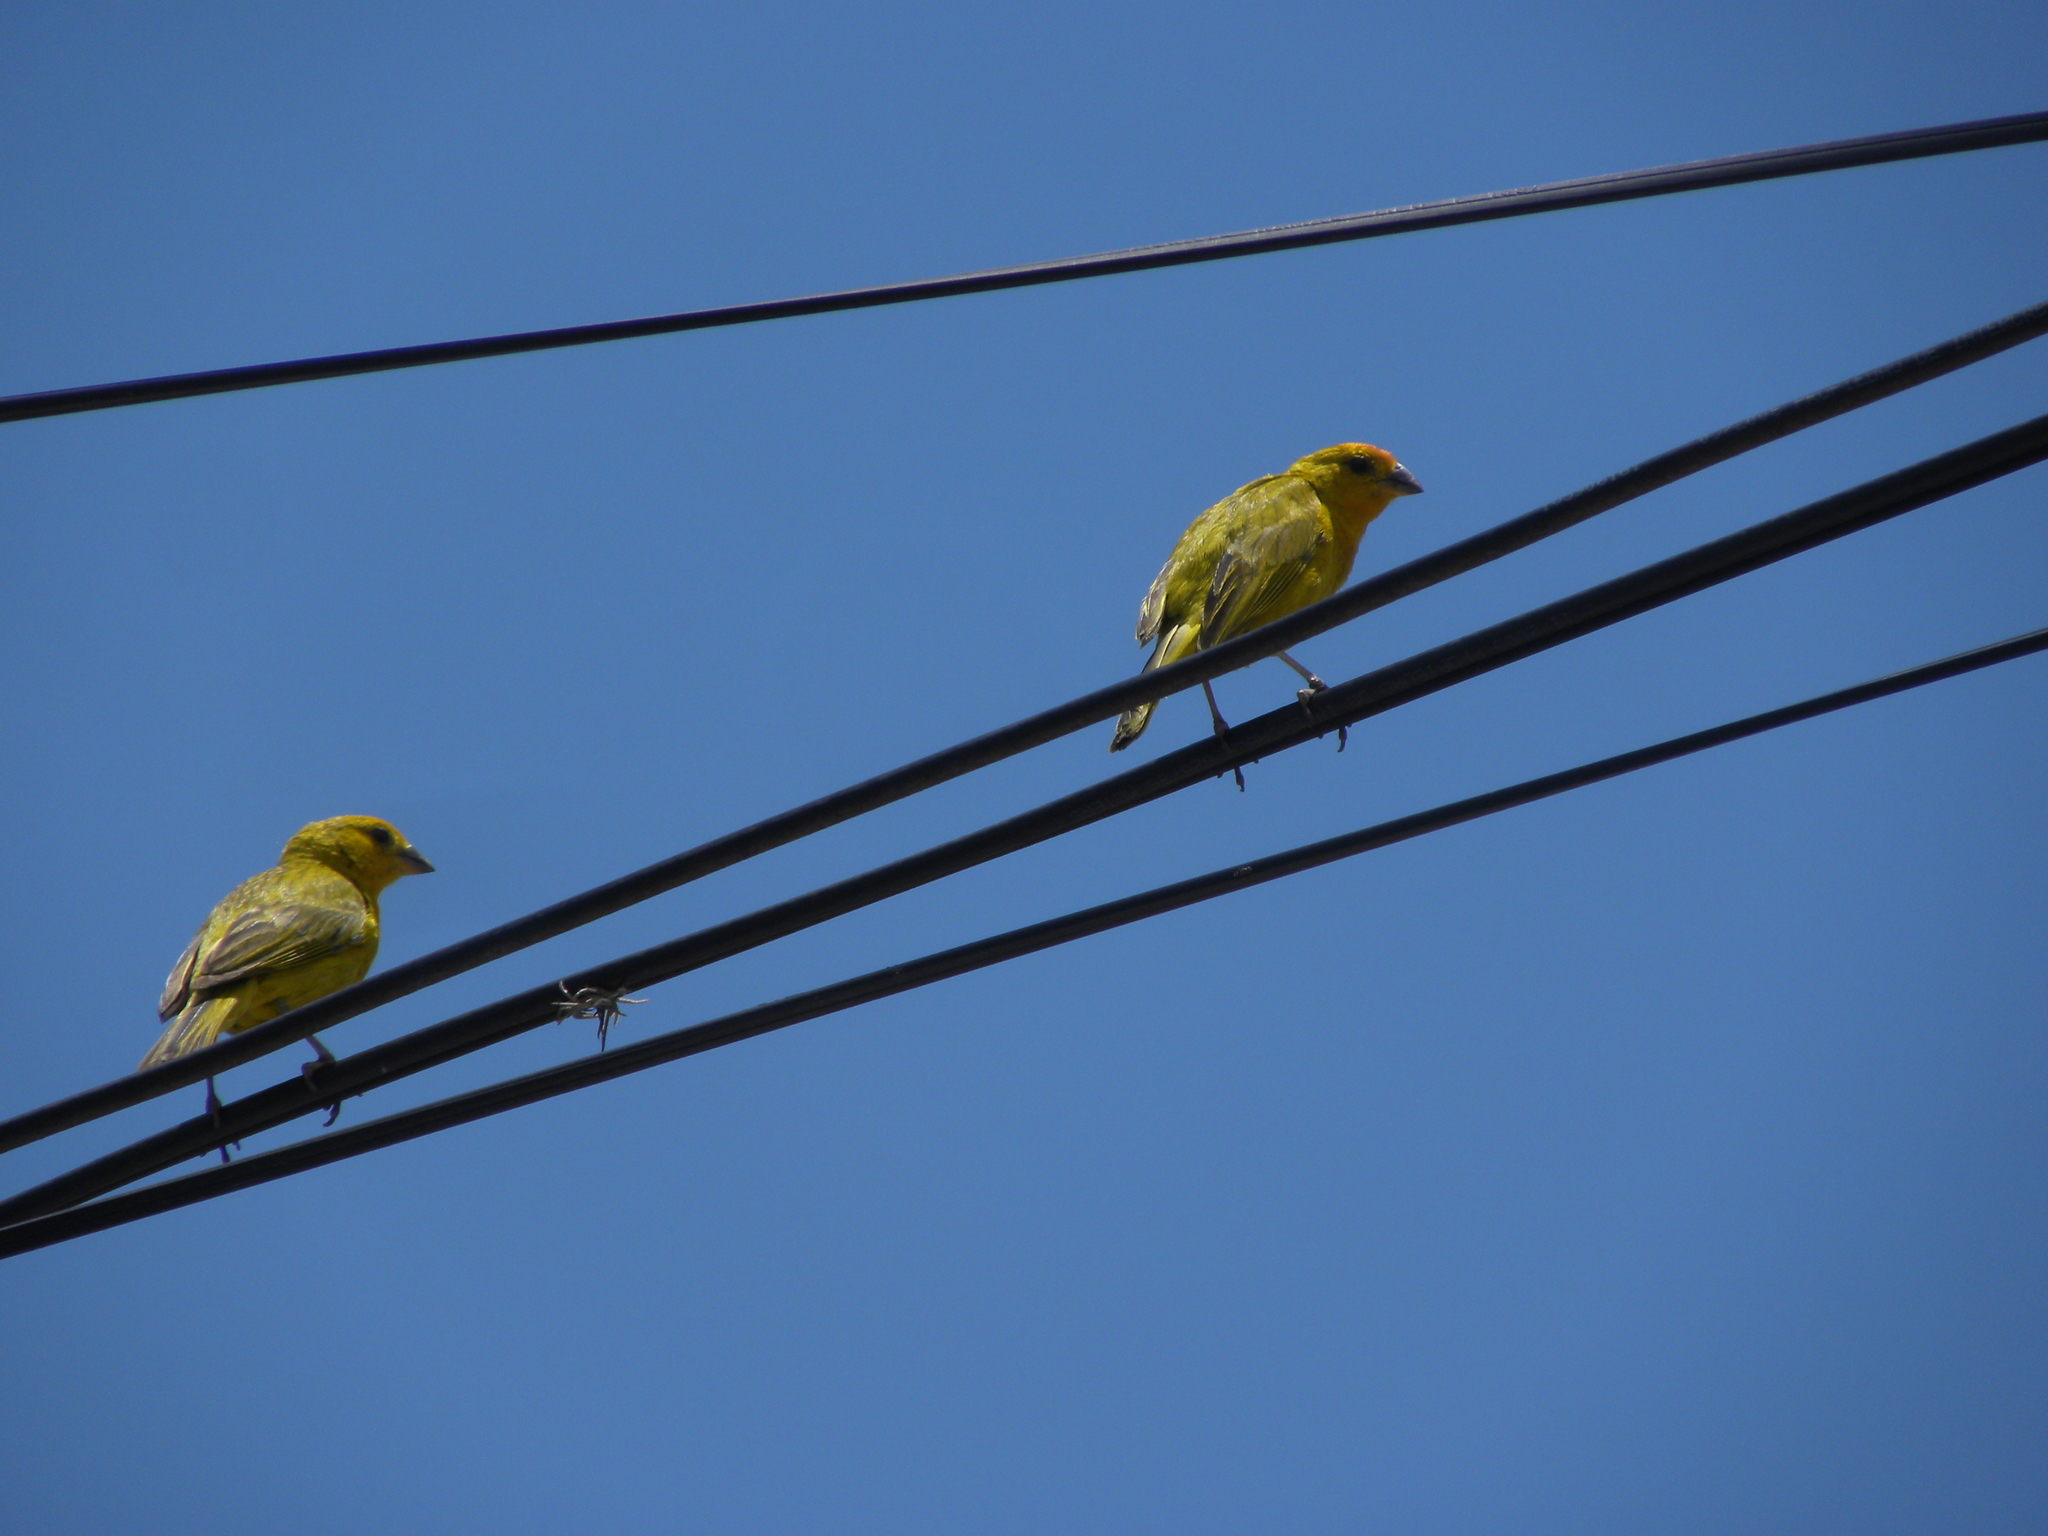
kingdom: Animalia
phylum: Chordata
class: Aves
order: Passeriformes
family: Thraupidae
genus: Sicalis
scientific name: Sicalis flaveola
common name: Saffron finch
